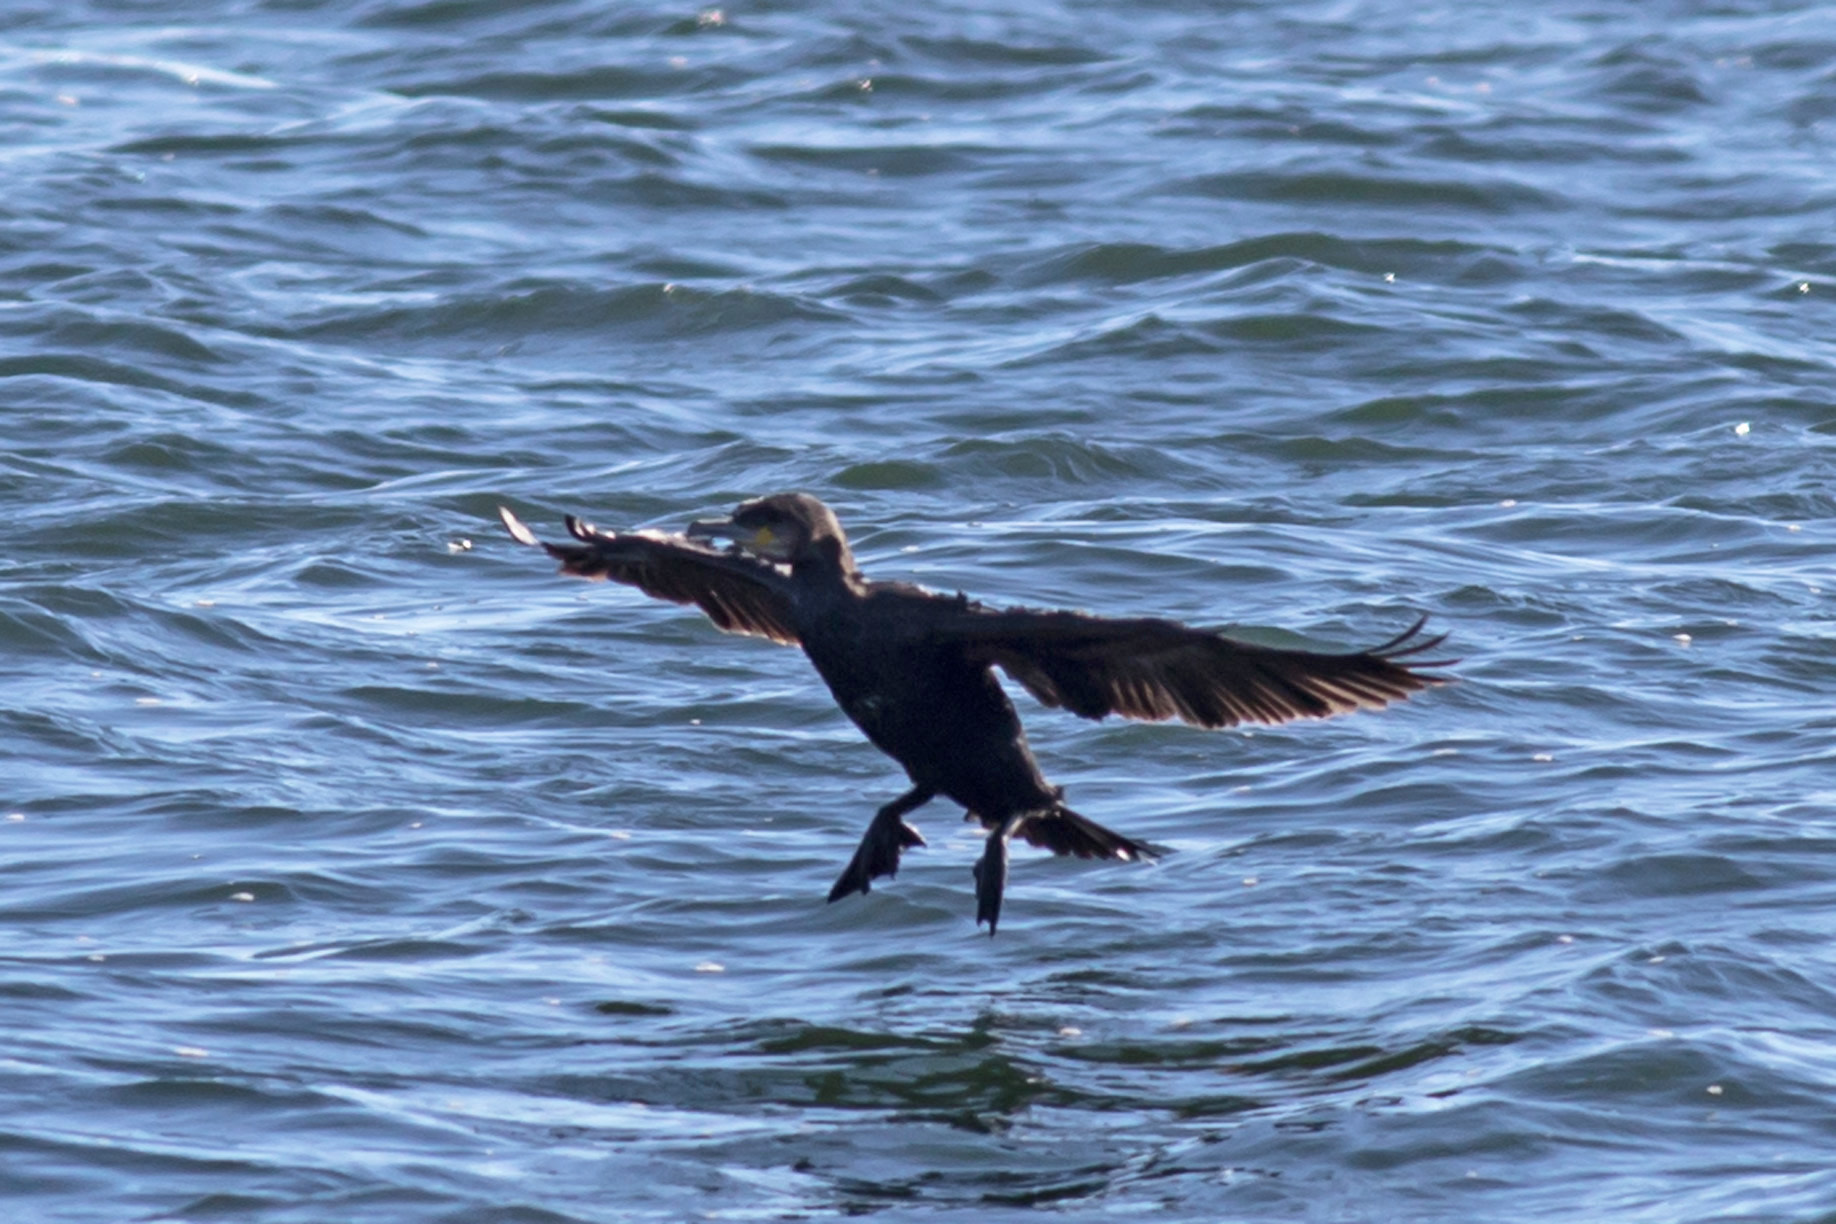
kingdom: Animalia
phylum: Chordata
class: Aves
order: Suliformes
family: Phalacrocoracidae
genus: Phalacrocorax
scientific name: Phalacrocorax carbo
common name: Great cormorant
